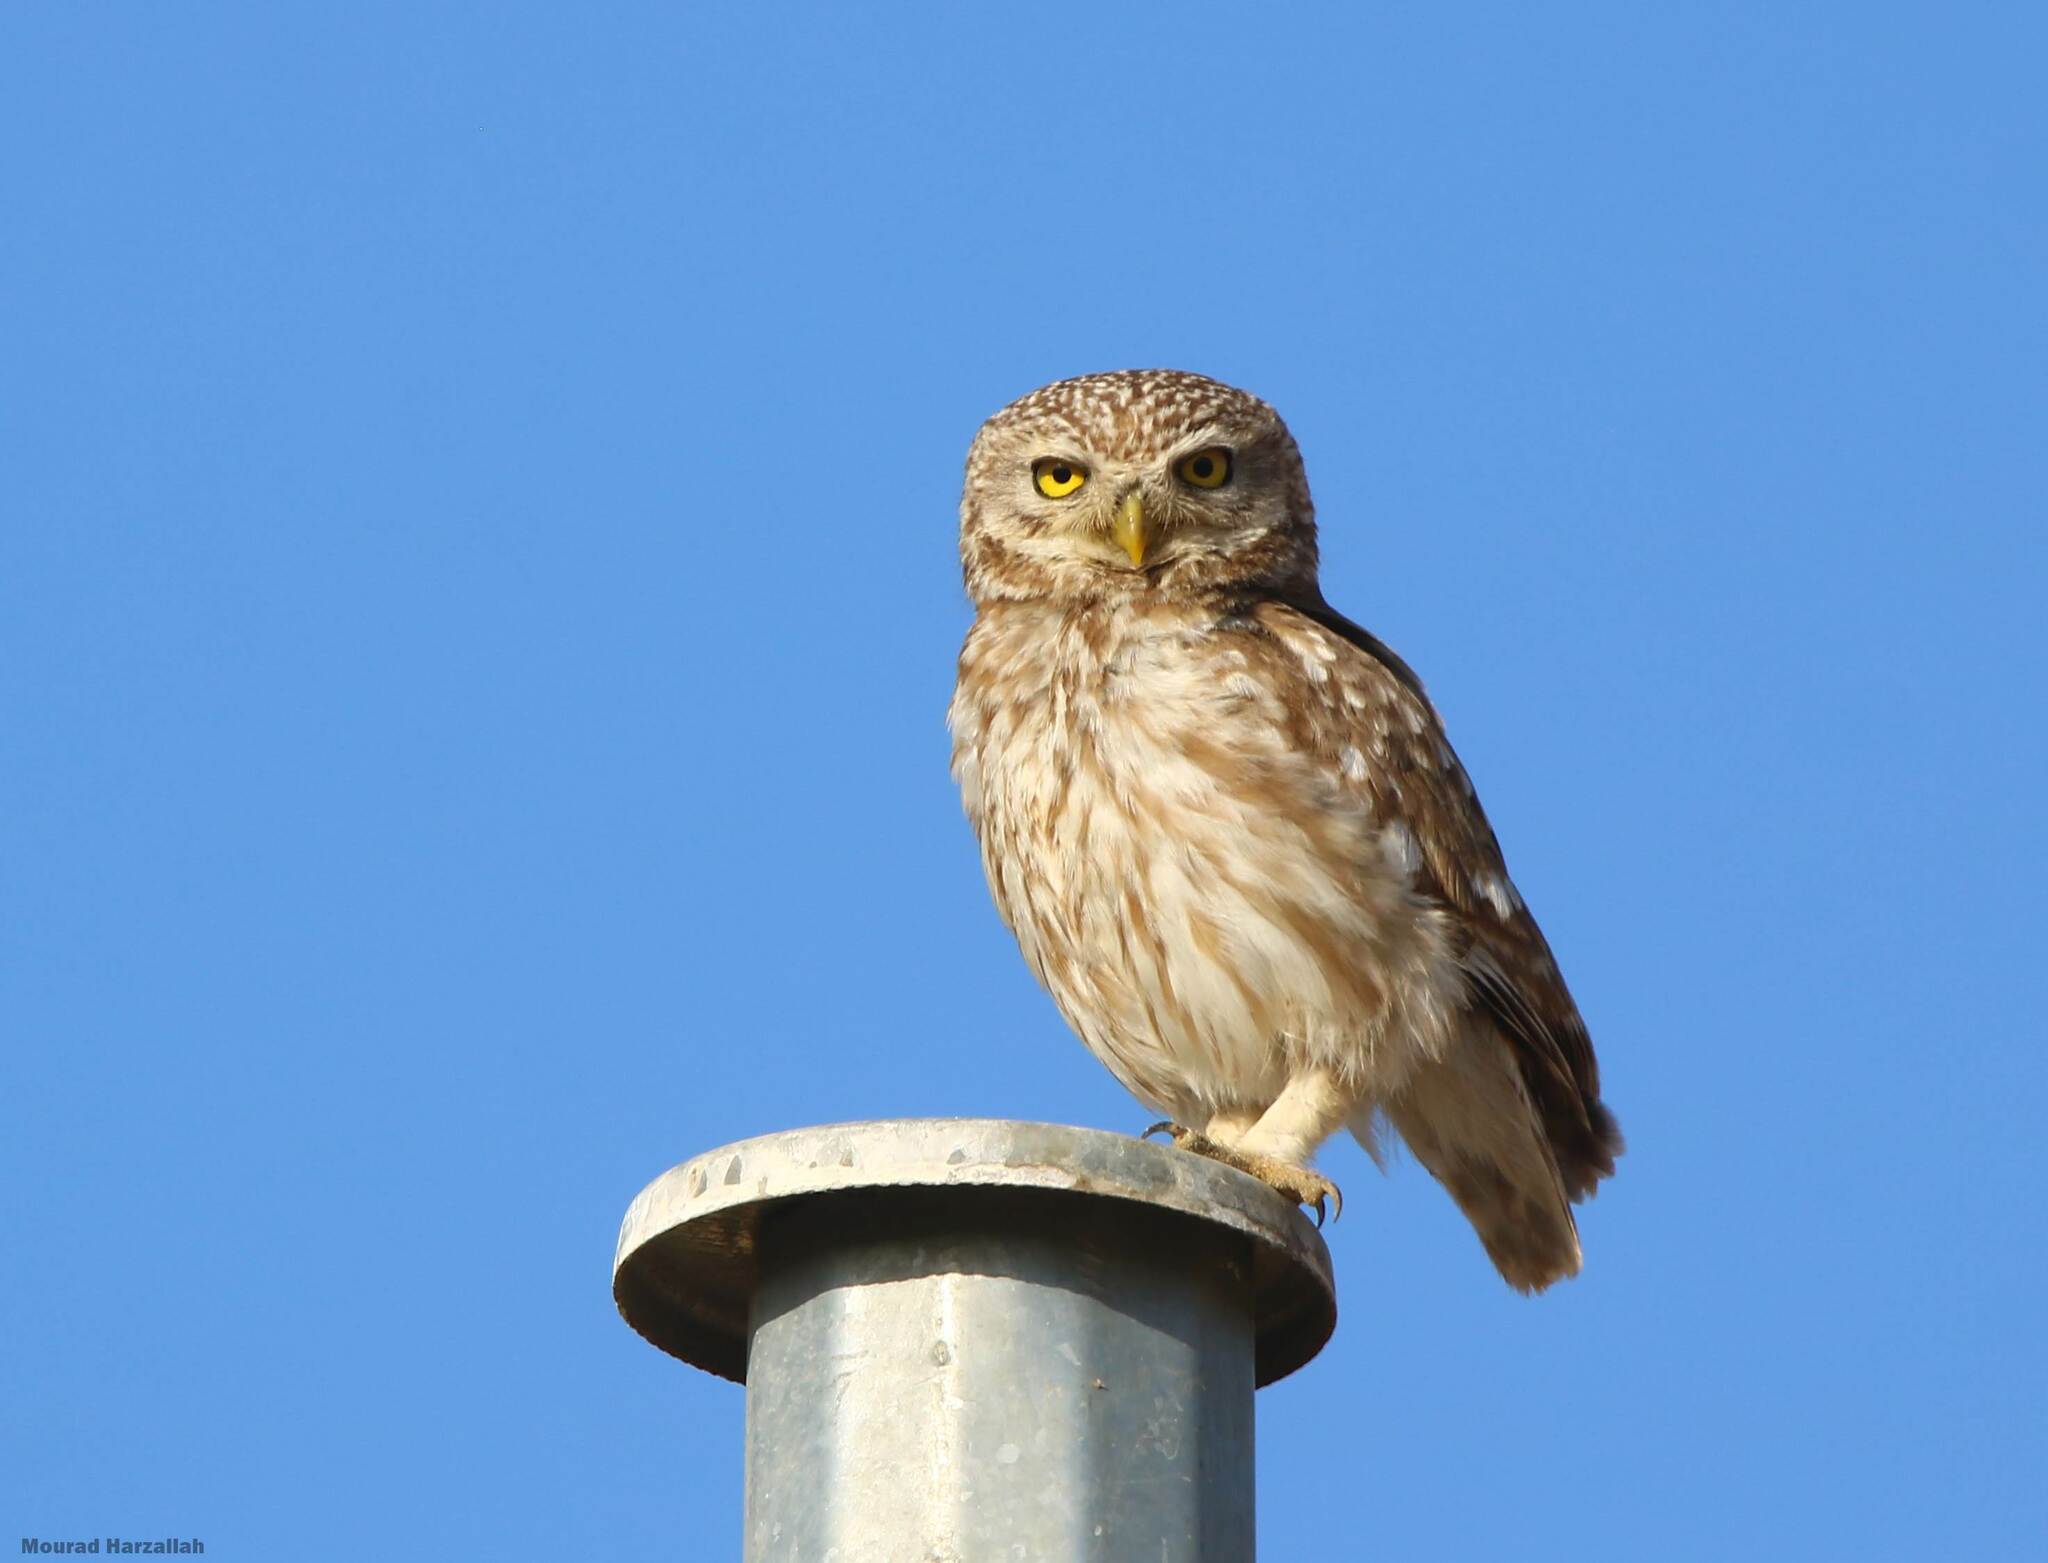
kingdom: Animalia
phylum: Chordata
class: Aves
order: Strigiformes
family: Strigidae
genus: Athene
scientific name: Athene noctua
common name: Little owl
